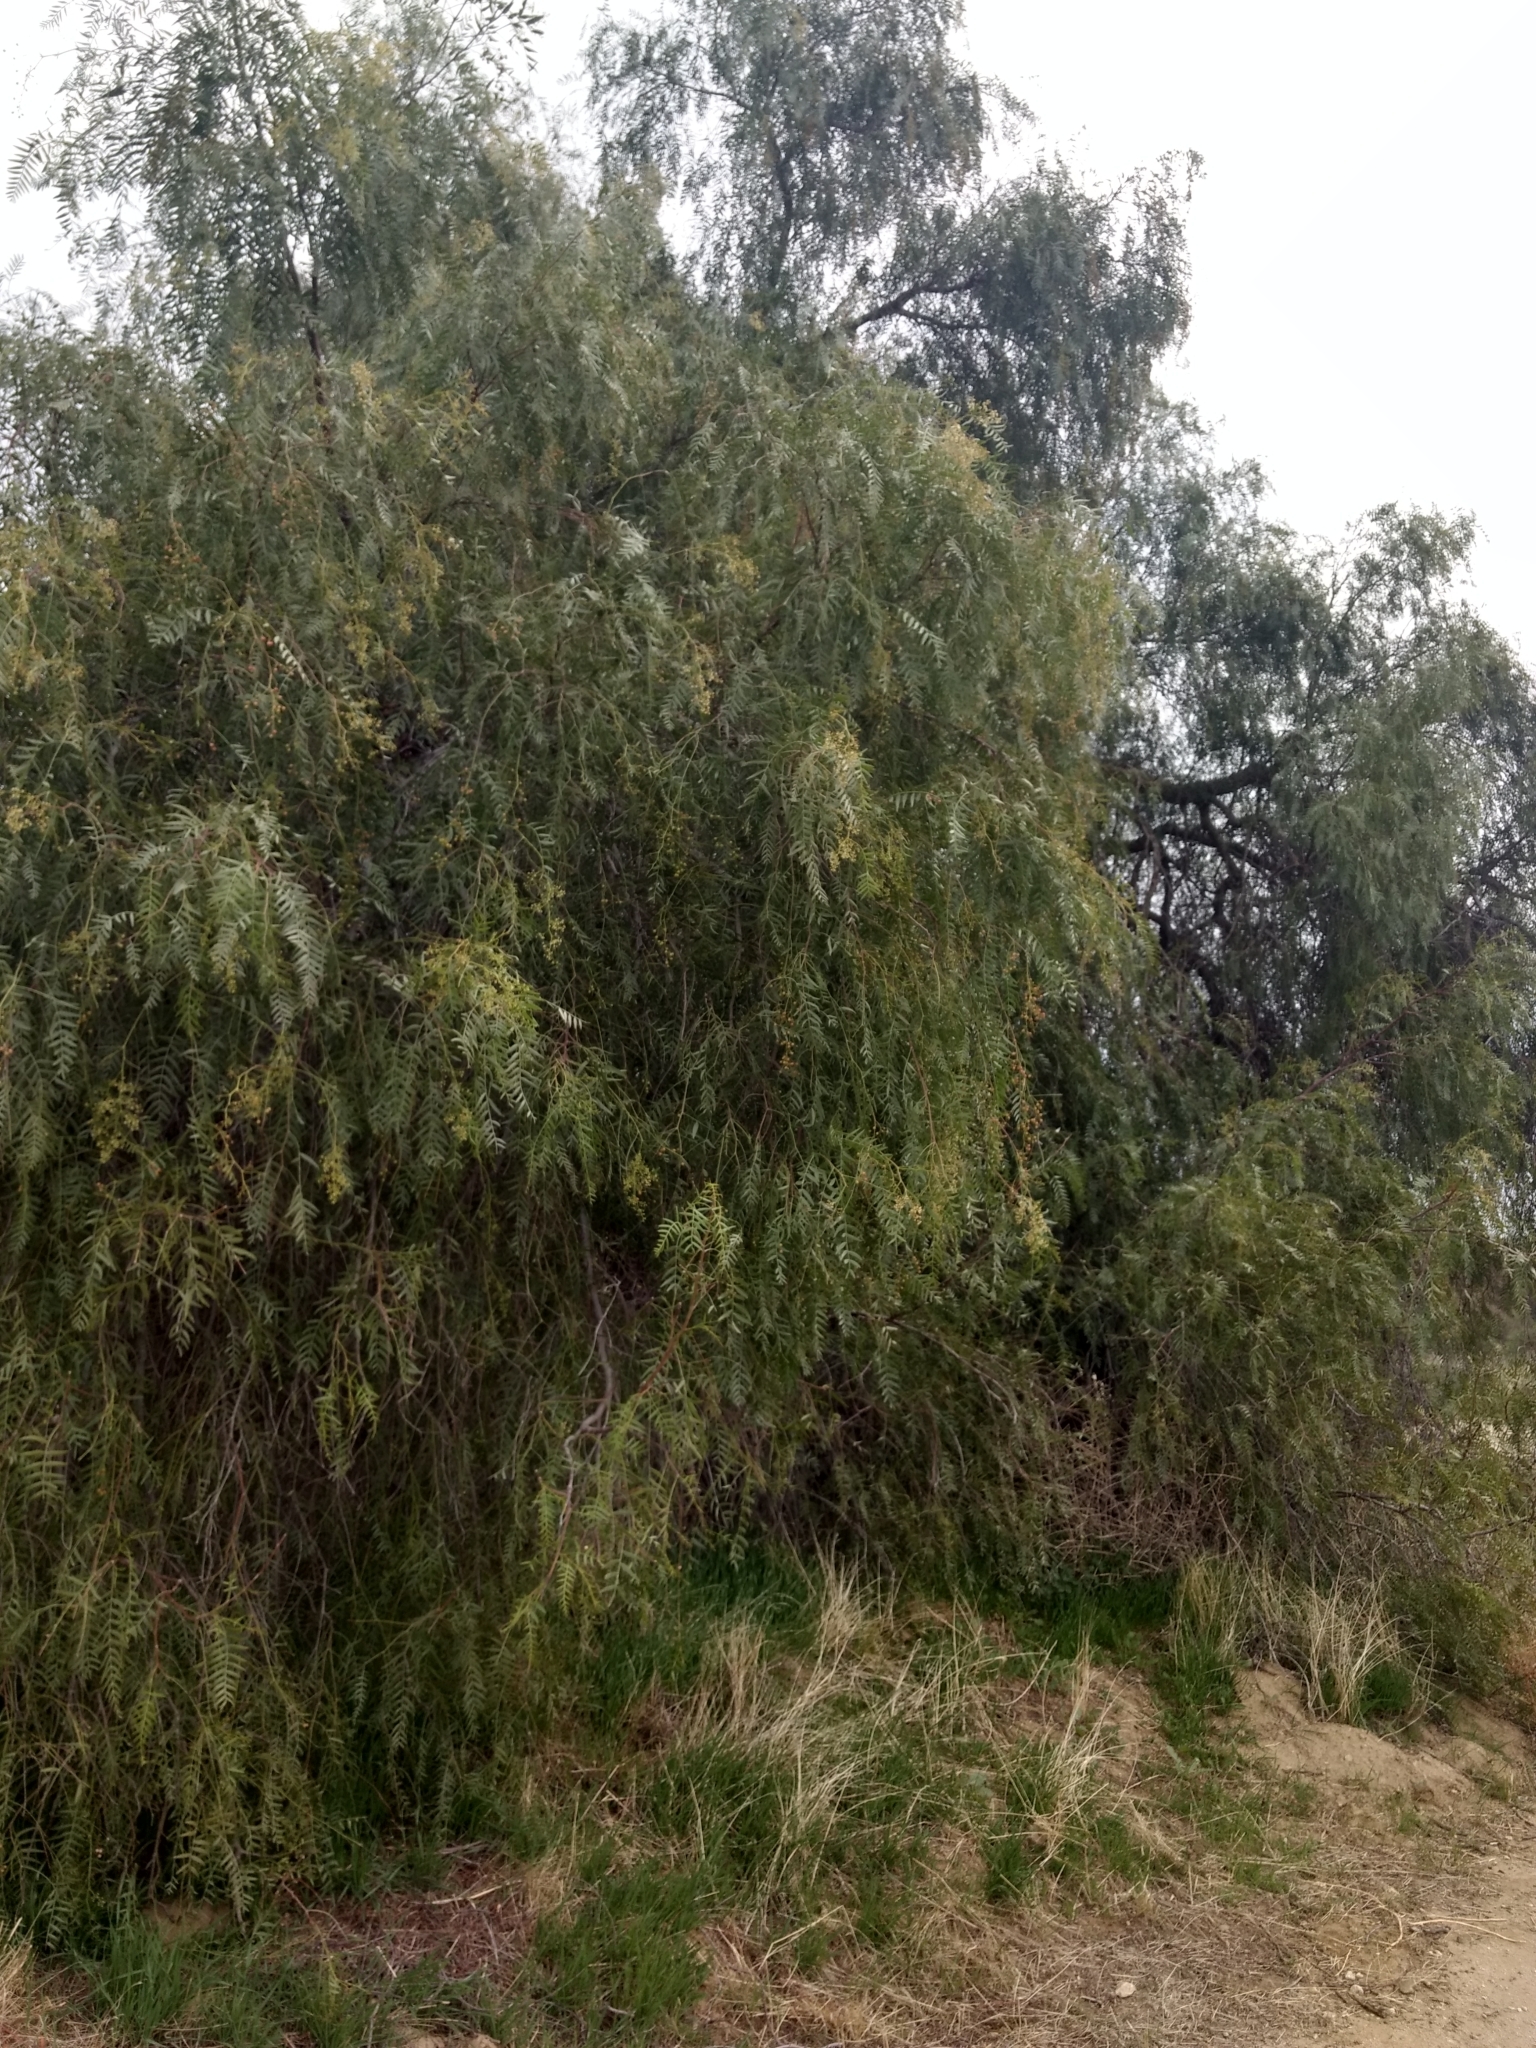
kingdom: Plantae
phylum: Tracheophyta
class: Magnoliopsida
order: Sapindales
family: Anacardiaceae
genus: Schinus
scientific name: Schinus molle
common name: Peruvian peppertree
